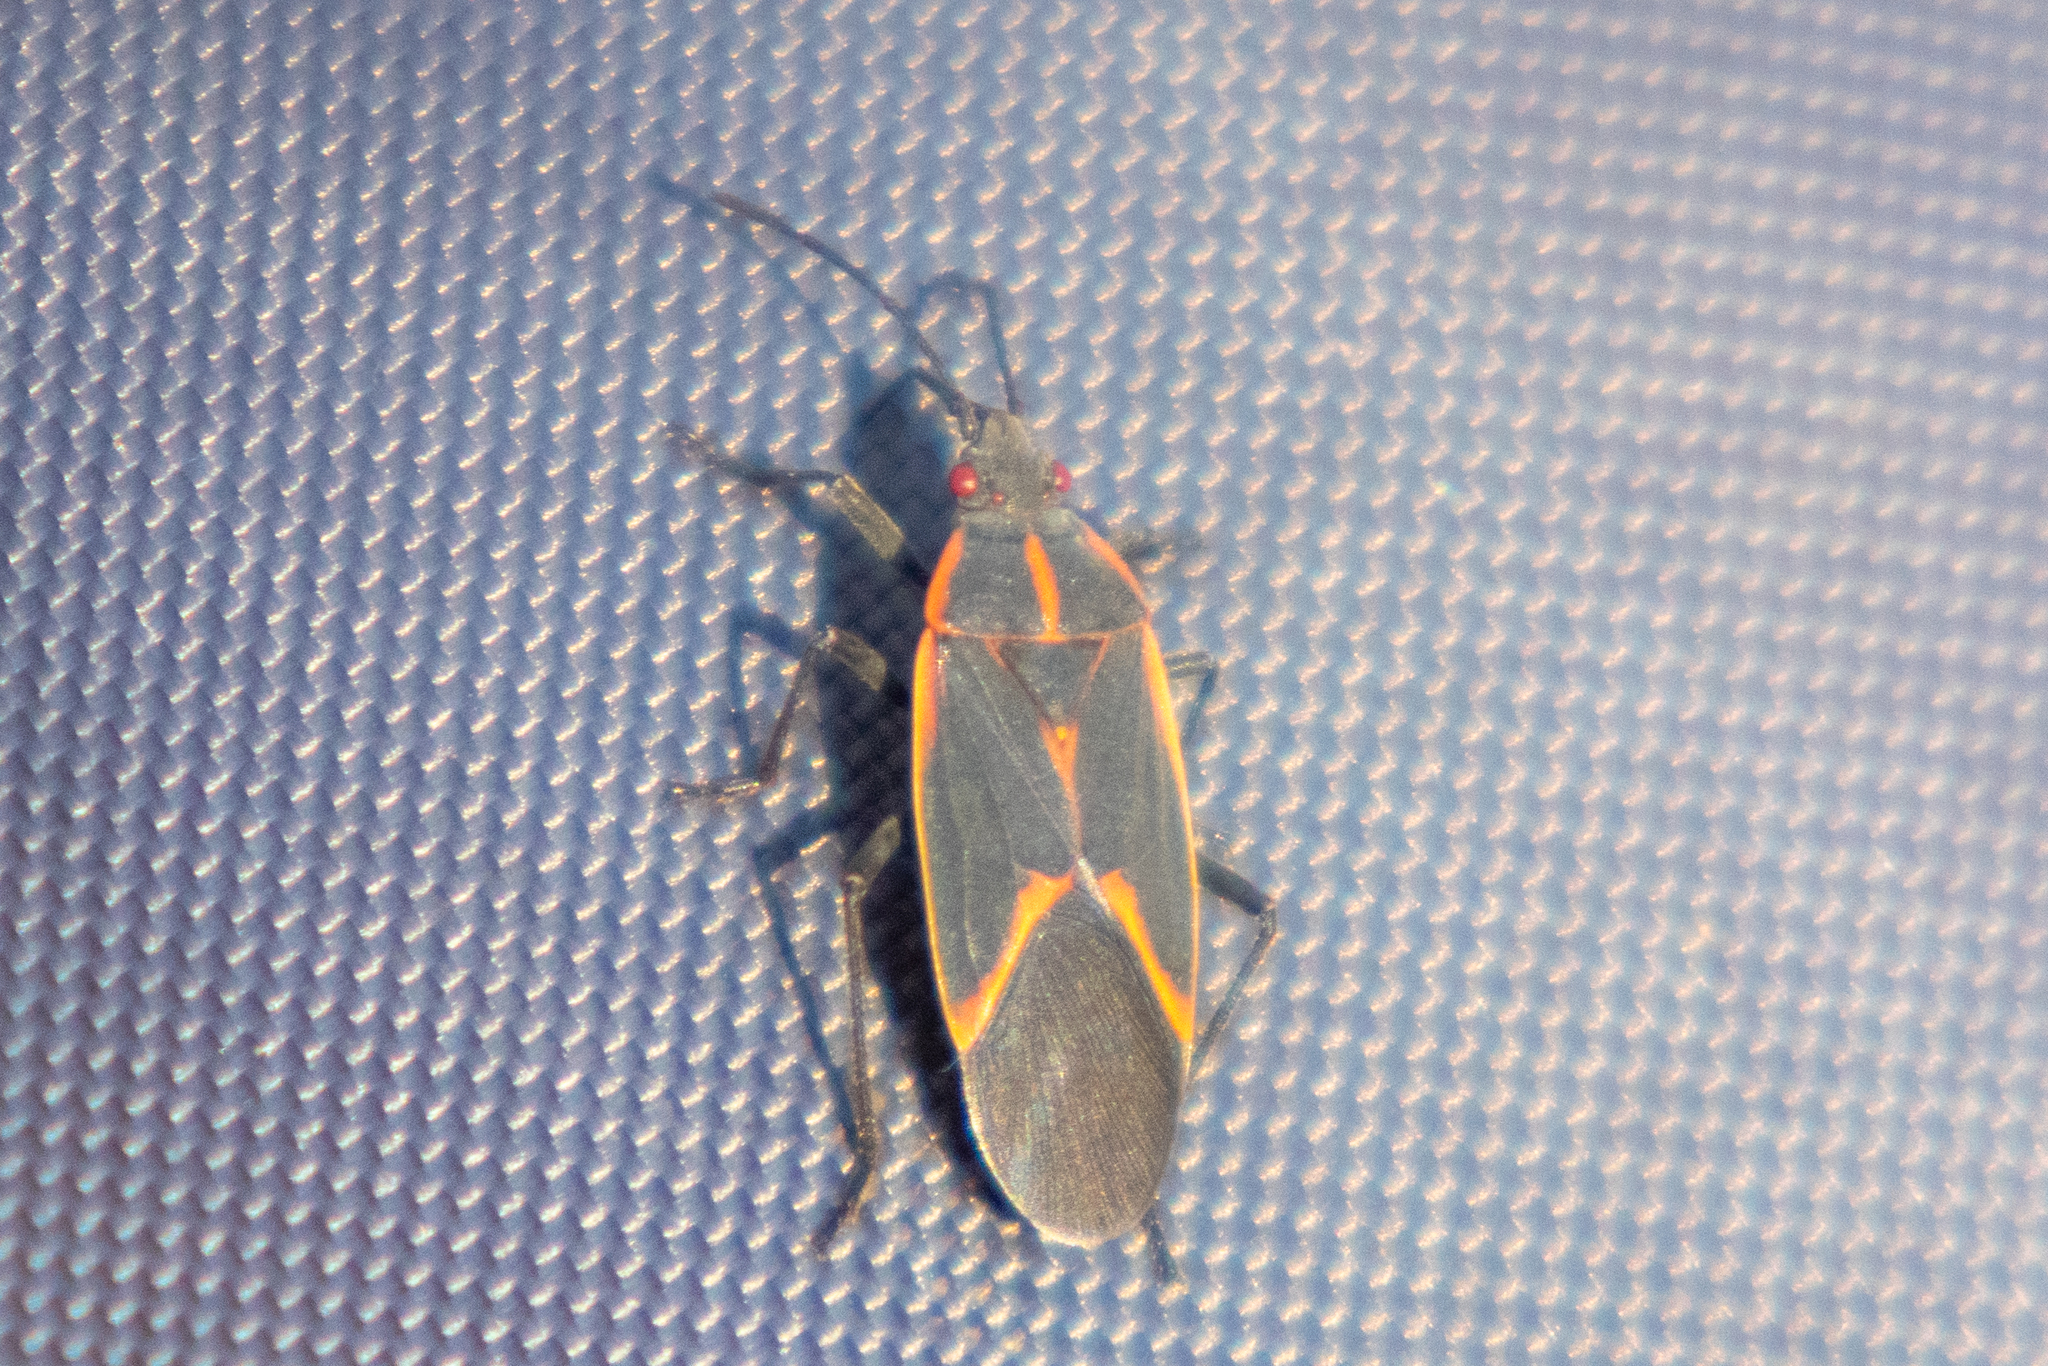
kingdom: Animalia
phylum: Arthropoda
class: Insecta
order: Hemiptera
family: Rhopalidae
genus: Boisea
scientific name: Boisea trivittata
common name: Boxelder bug
